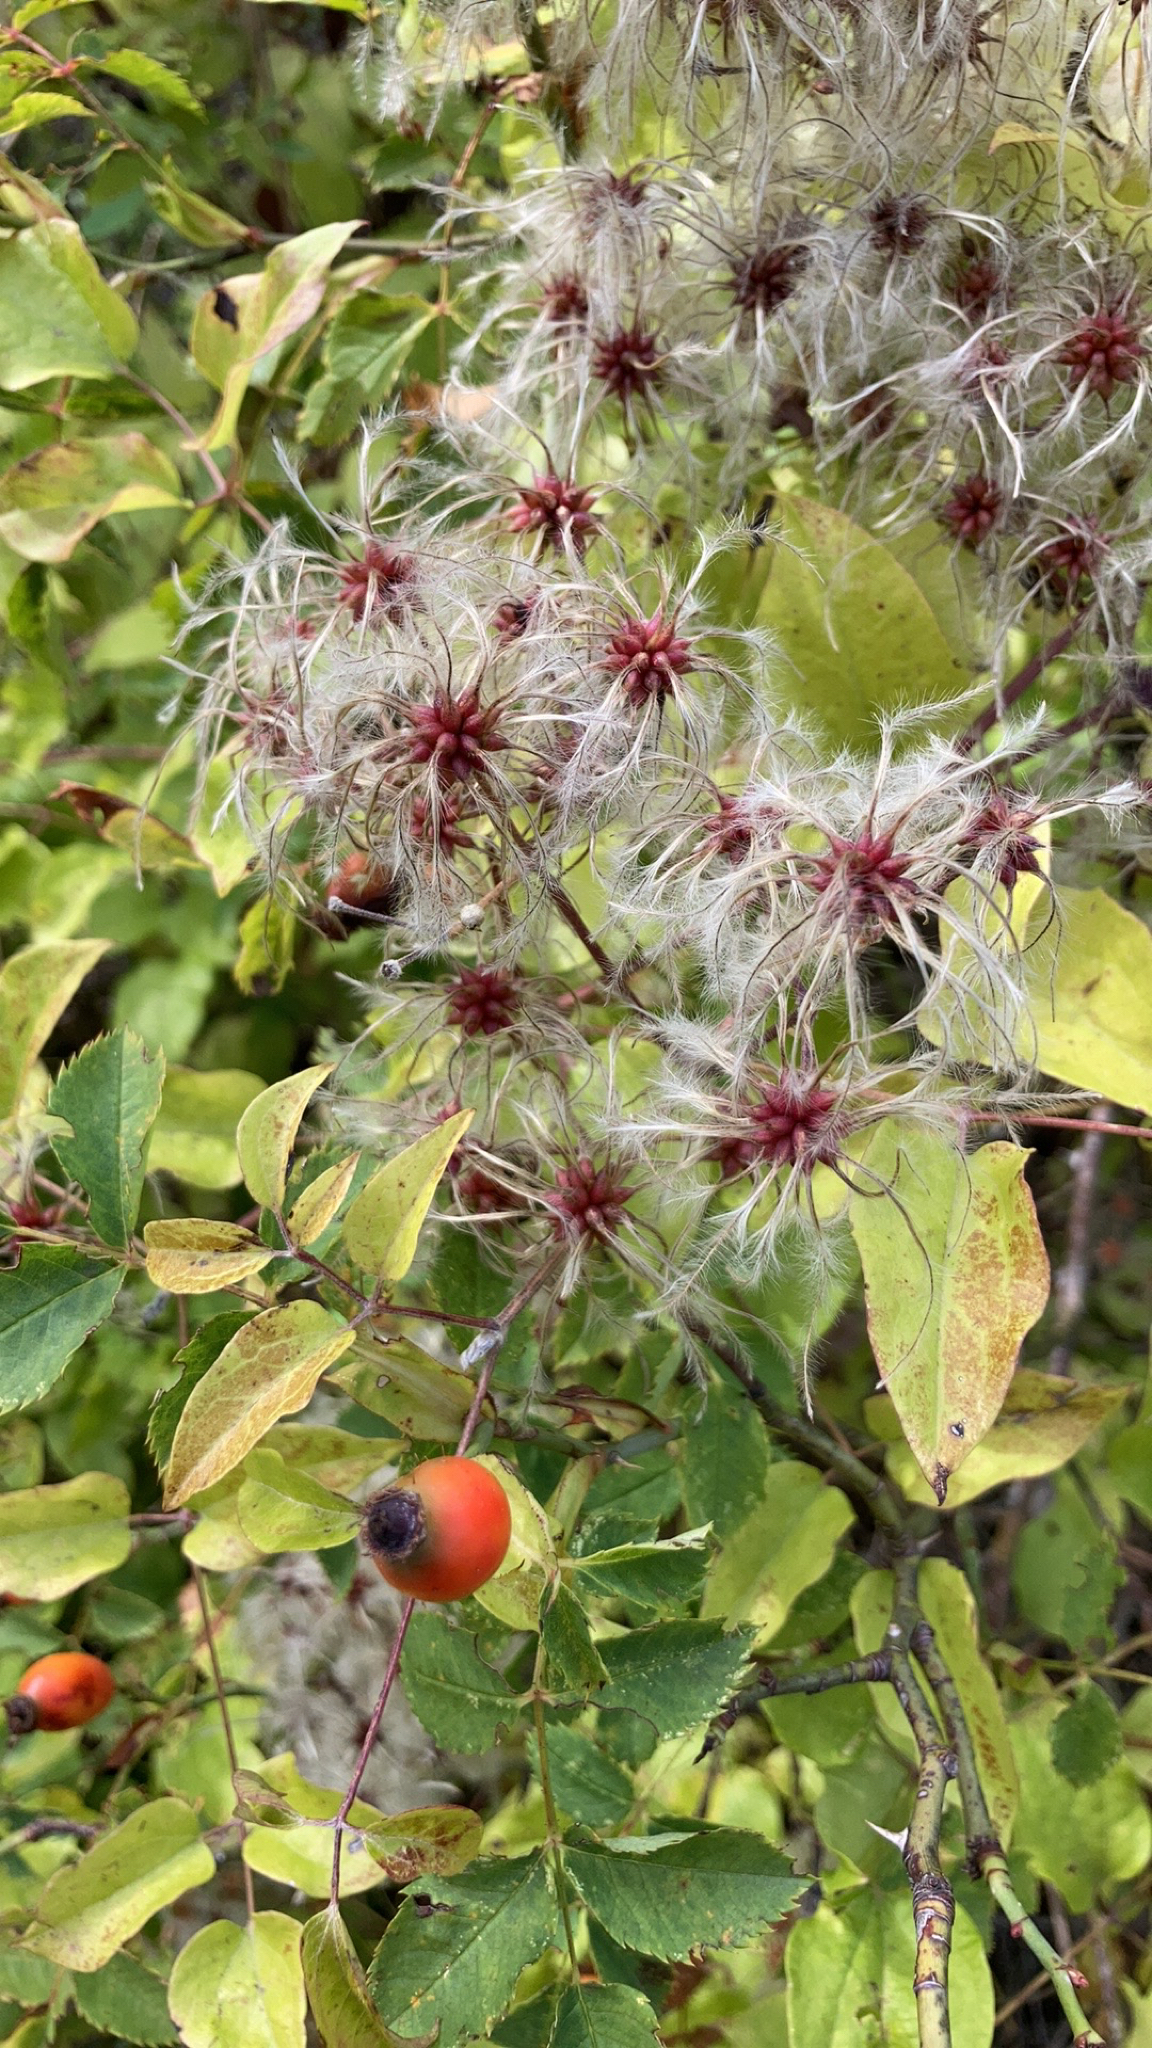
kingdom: Plantae
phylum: Tracheophyta
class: Magnoliopsida
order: Ranunculales
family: Ranunculaceae
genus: Clematis
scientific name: Clematis vitalba
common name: Evergreen clematis
